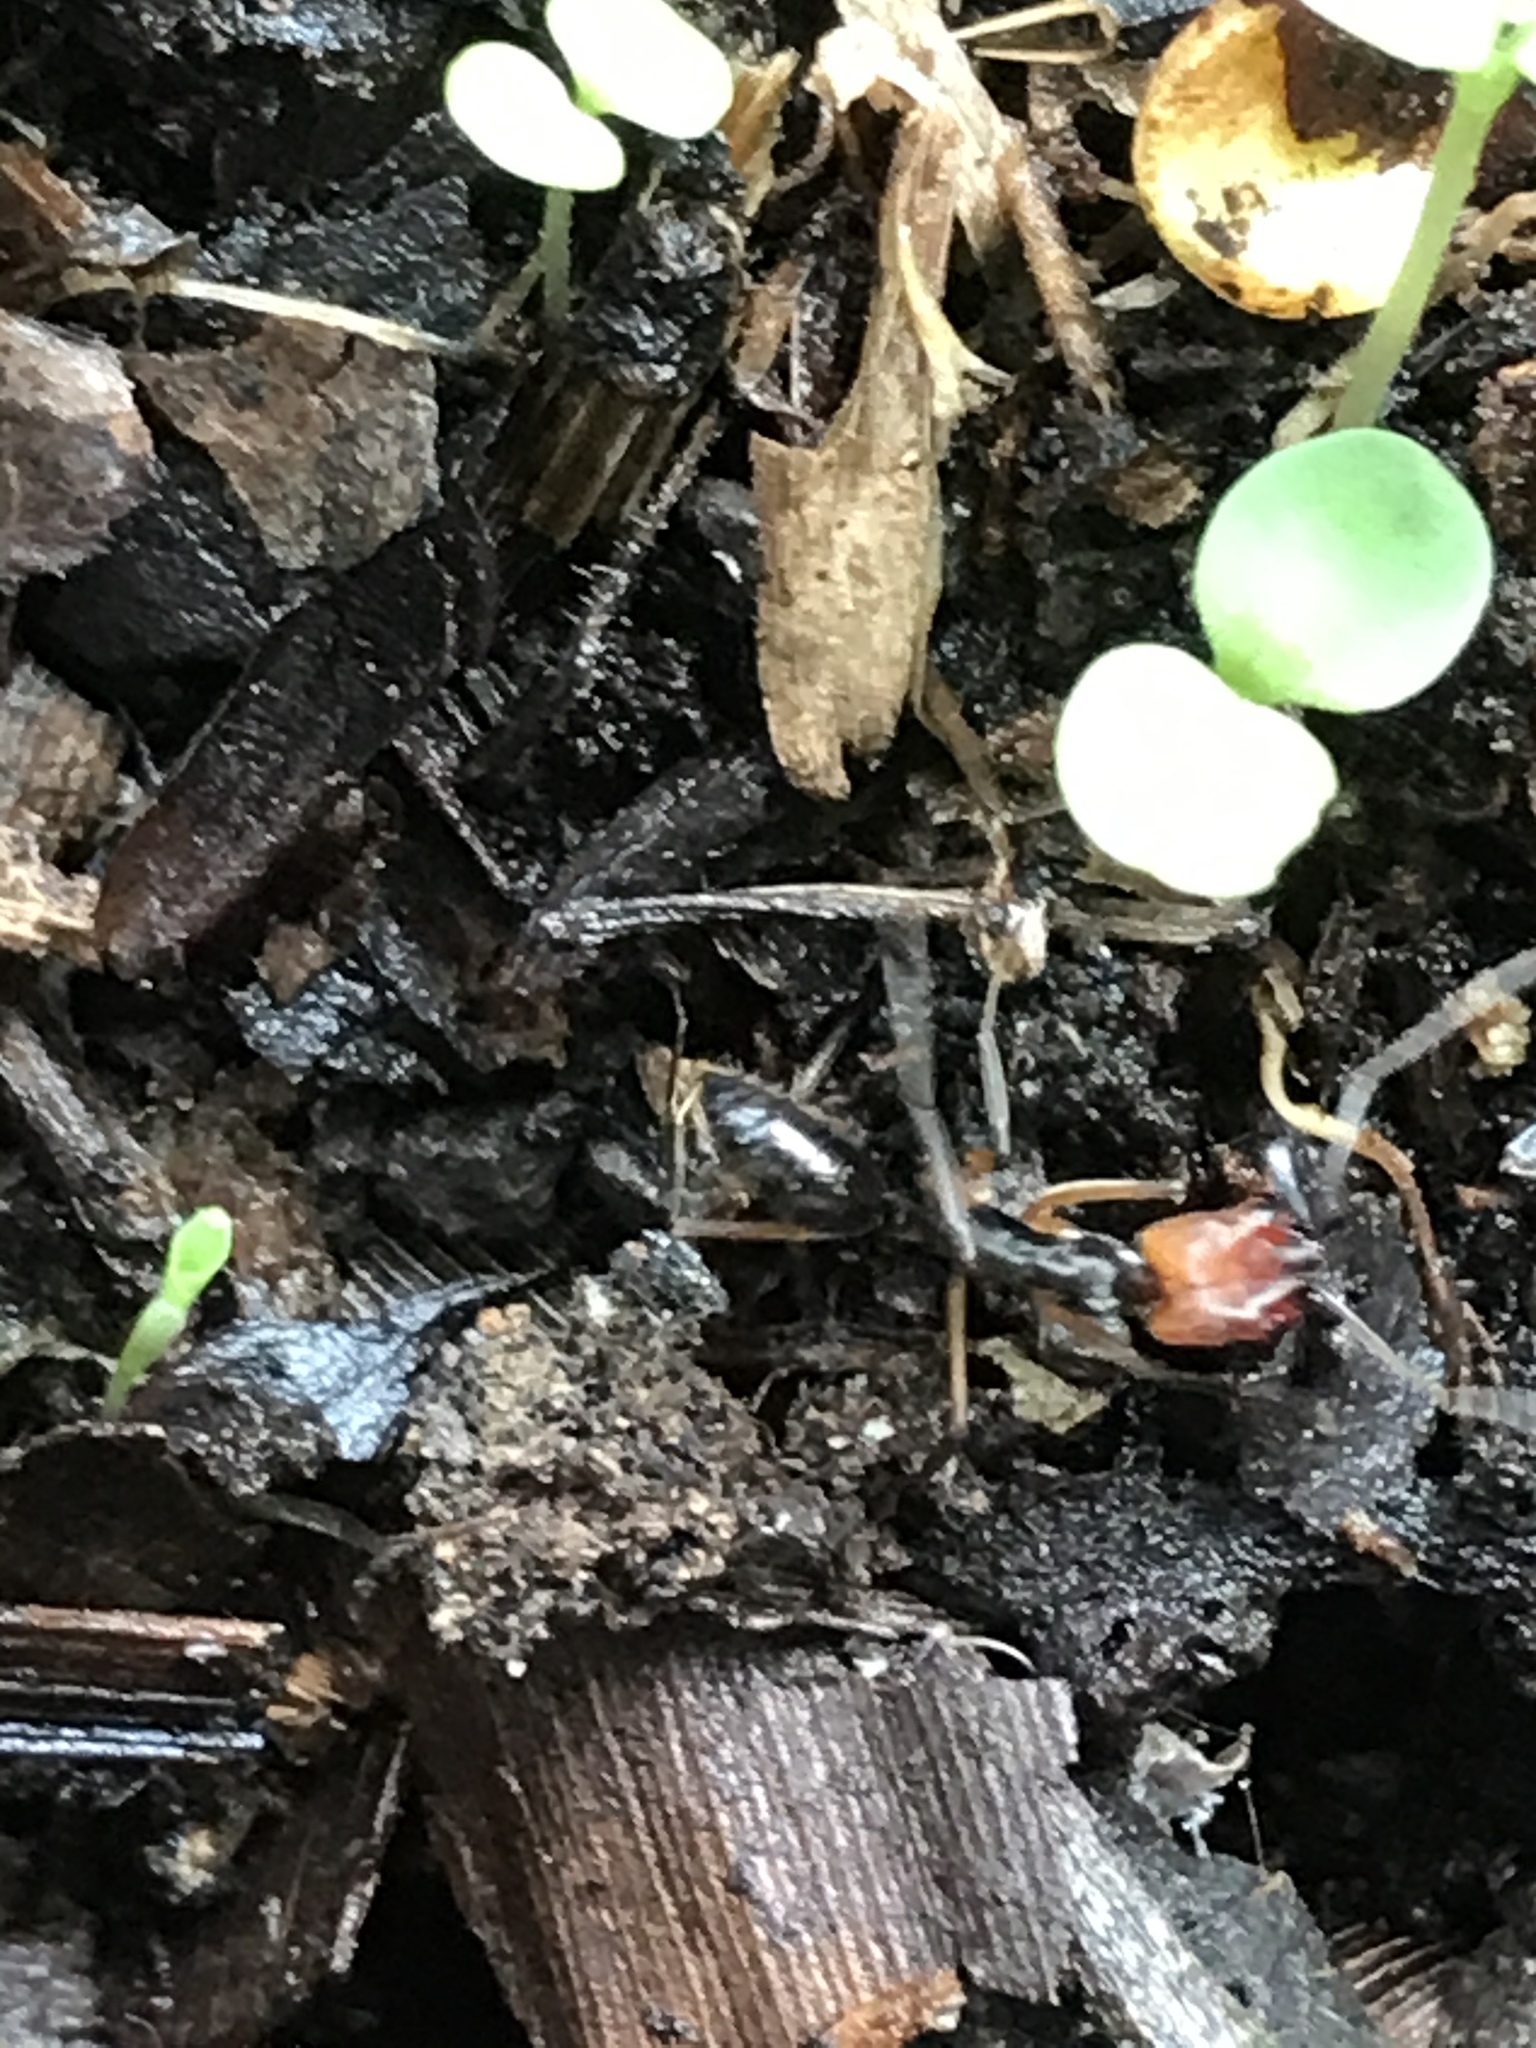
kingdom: Animalia
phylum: Arthropoda
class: Insecta
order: Hymenoptera
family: Formicidae
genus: Odontomachus
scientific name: Odontomachus erythrocephalus
